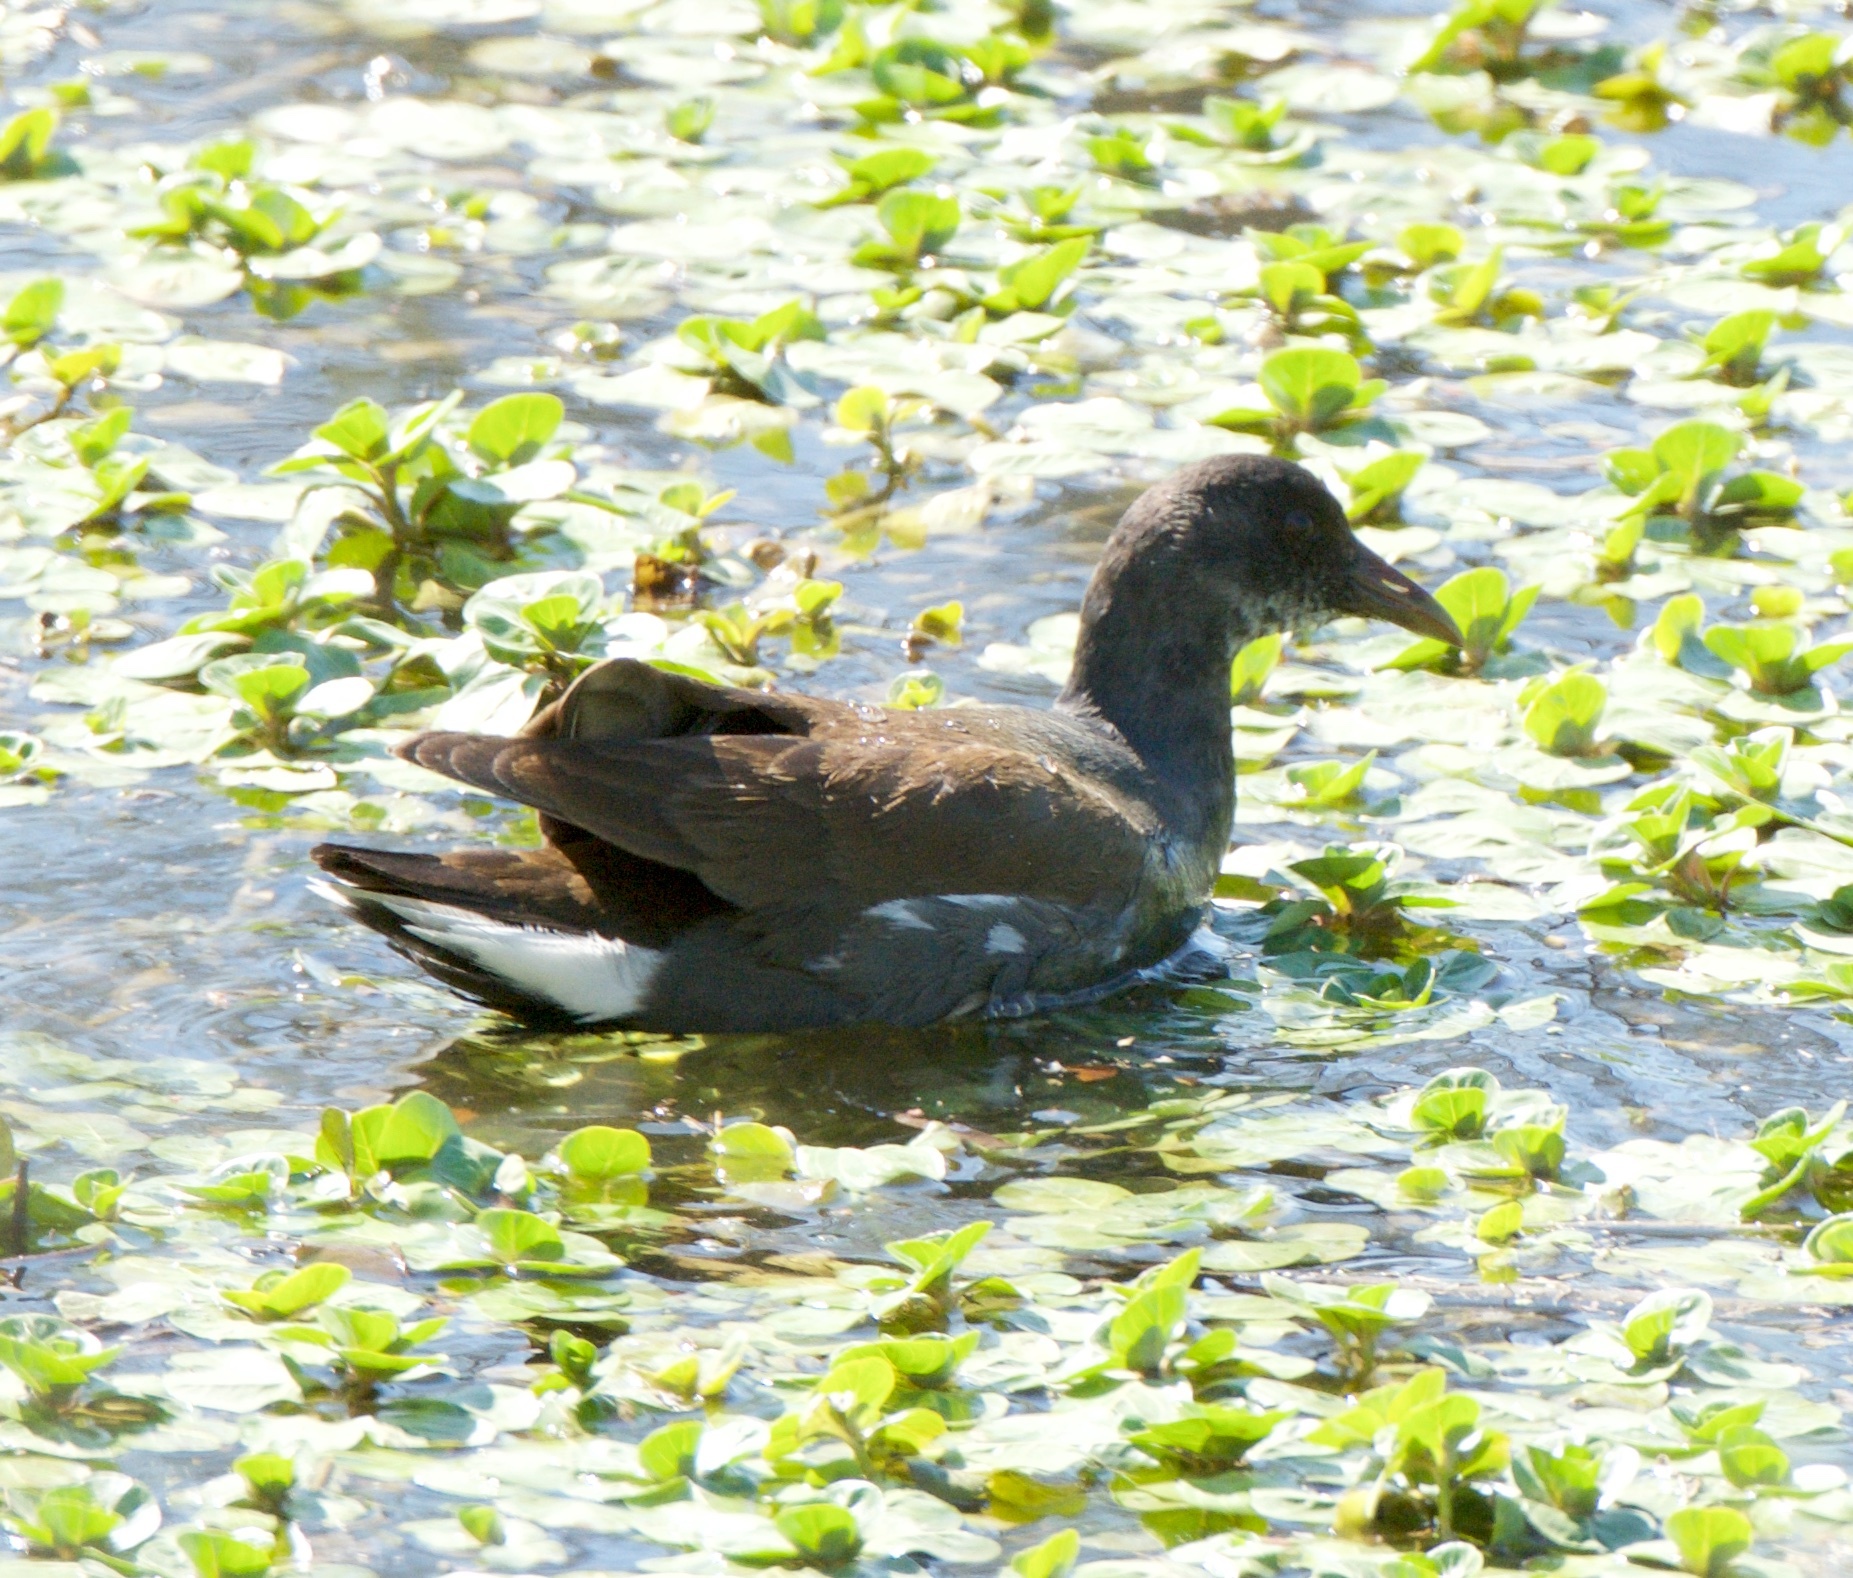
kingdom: Animalia
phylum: Chordata
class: Aves
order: Gruiformes
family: Rallidae
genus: Gallinula
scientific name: Gallinula chloropus
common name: Common moorhen
